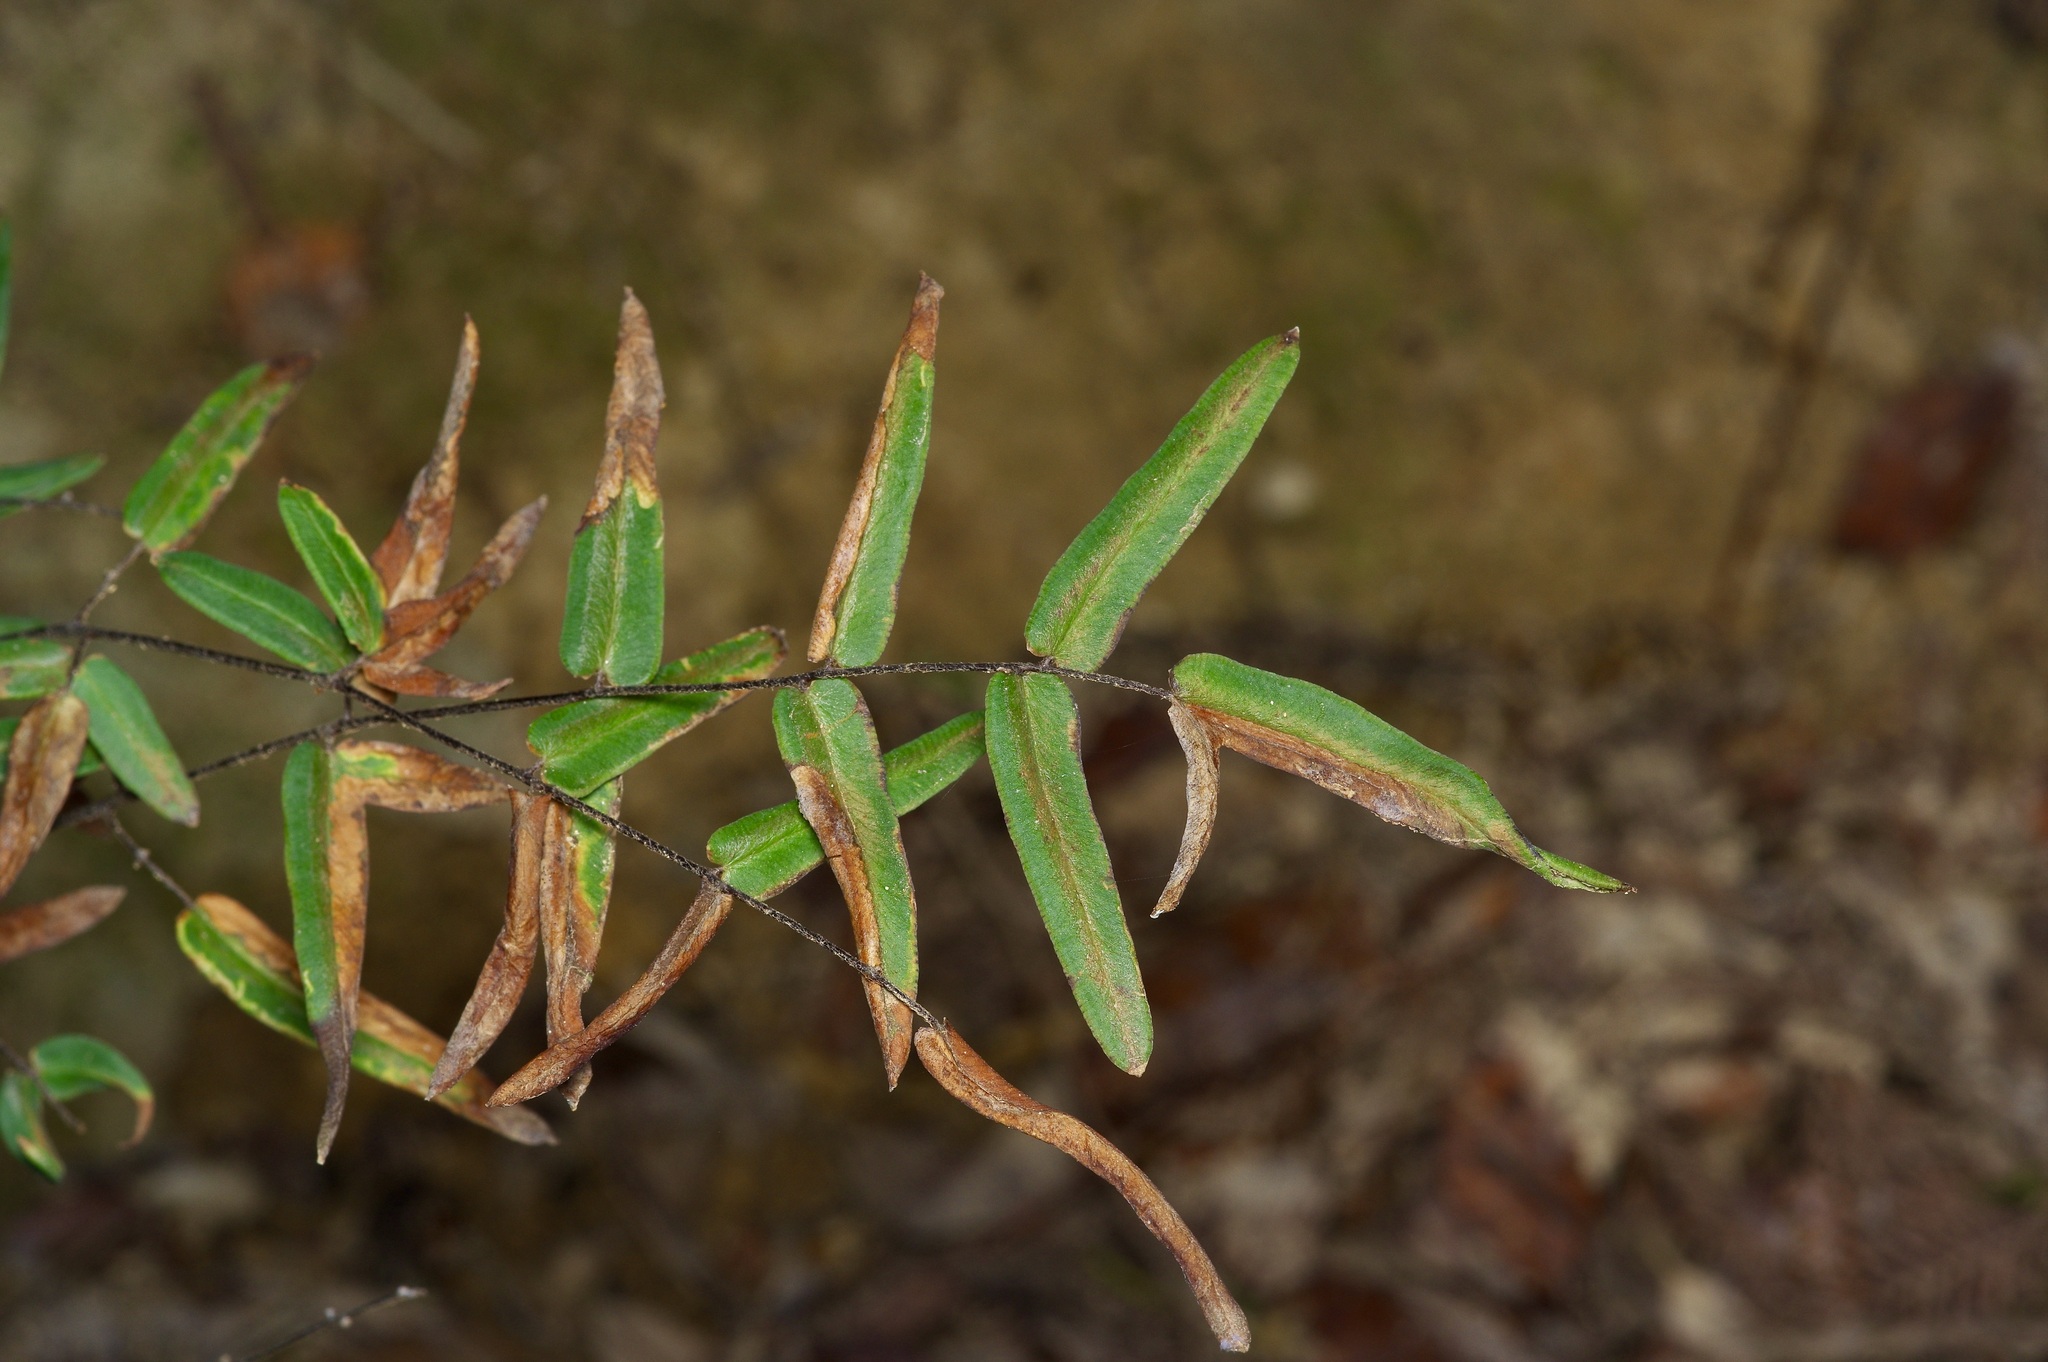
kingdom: Plantae
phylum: Tracheophyta
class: Polypodiopsida
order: Polypodiales
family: Pteridaceae
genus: Pellaea
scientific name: Pellaea atropurpurea
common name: Hairy cliffbrake
